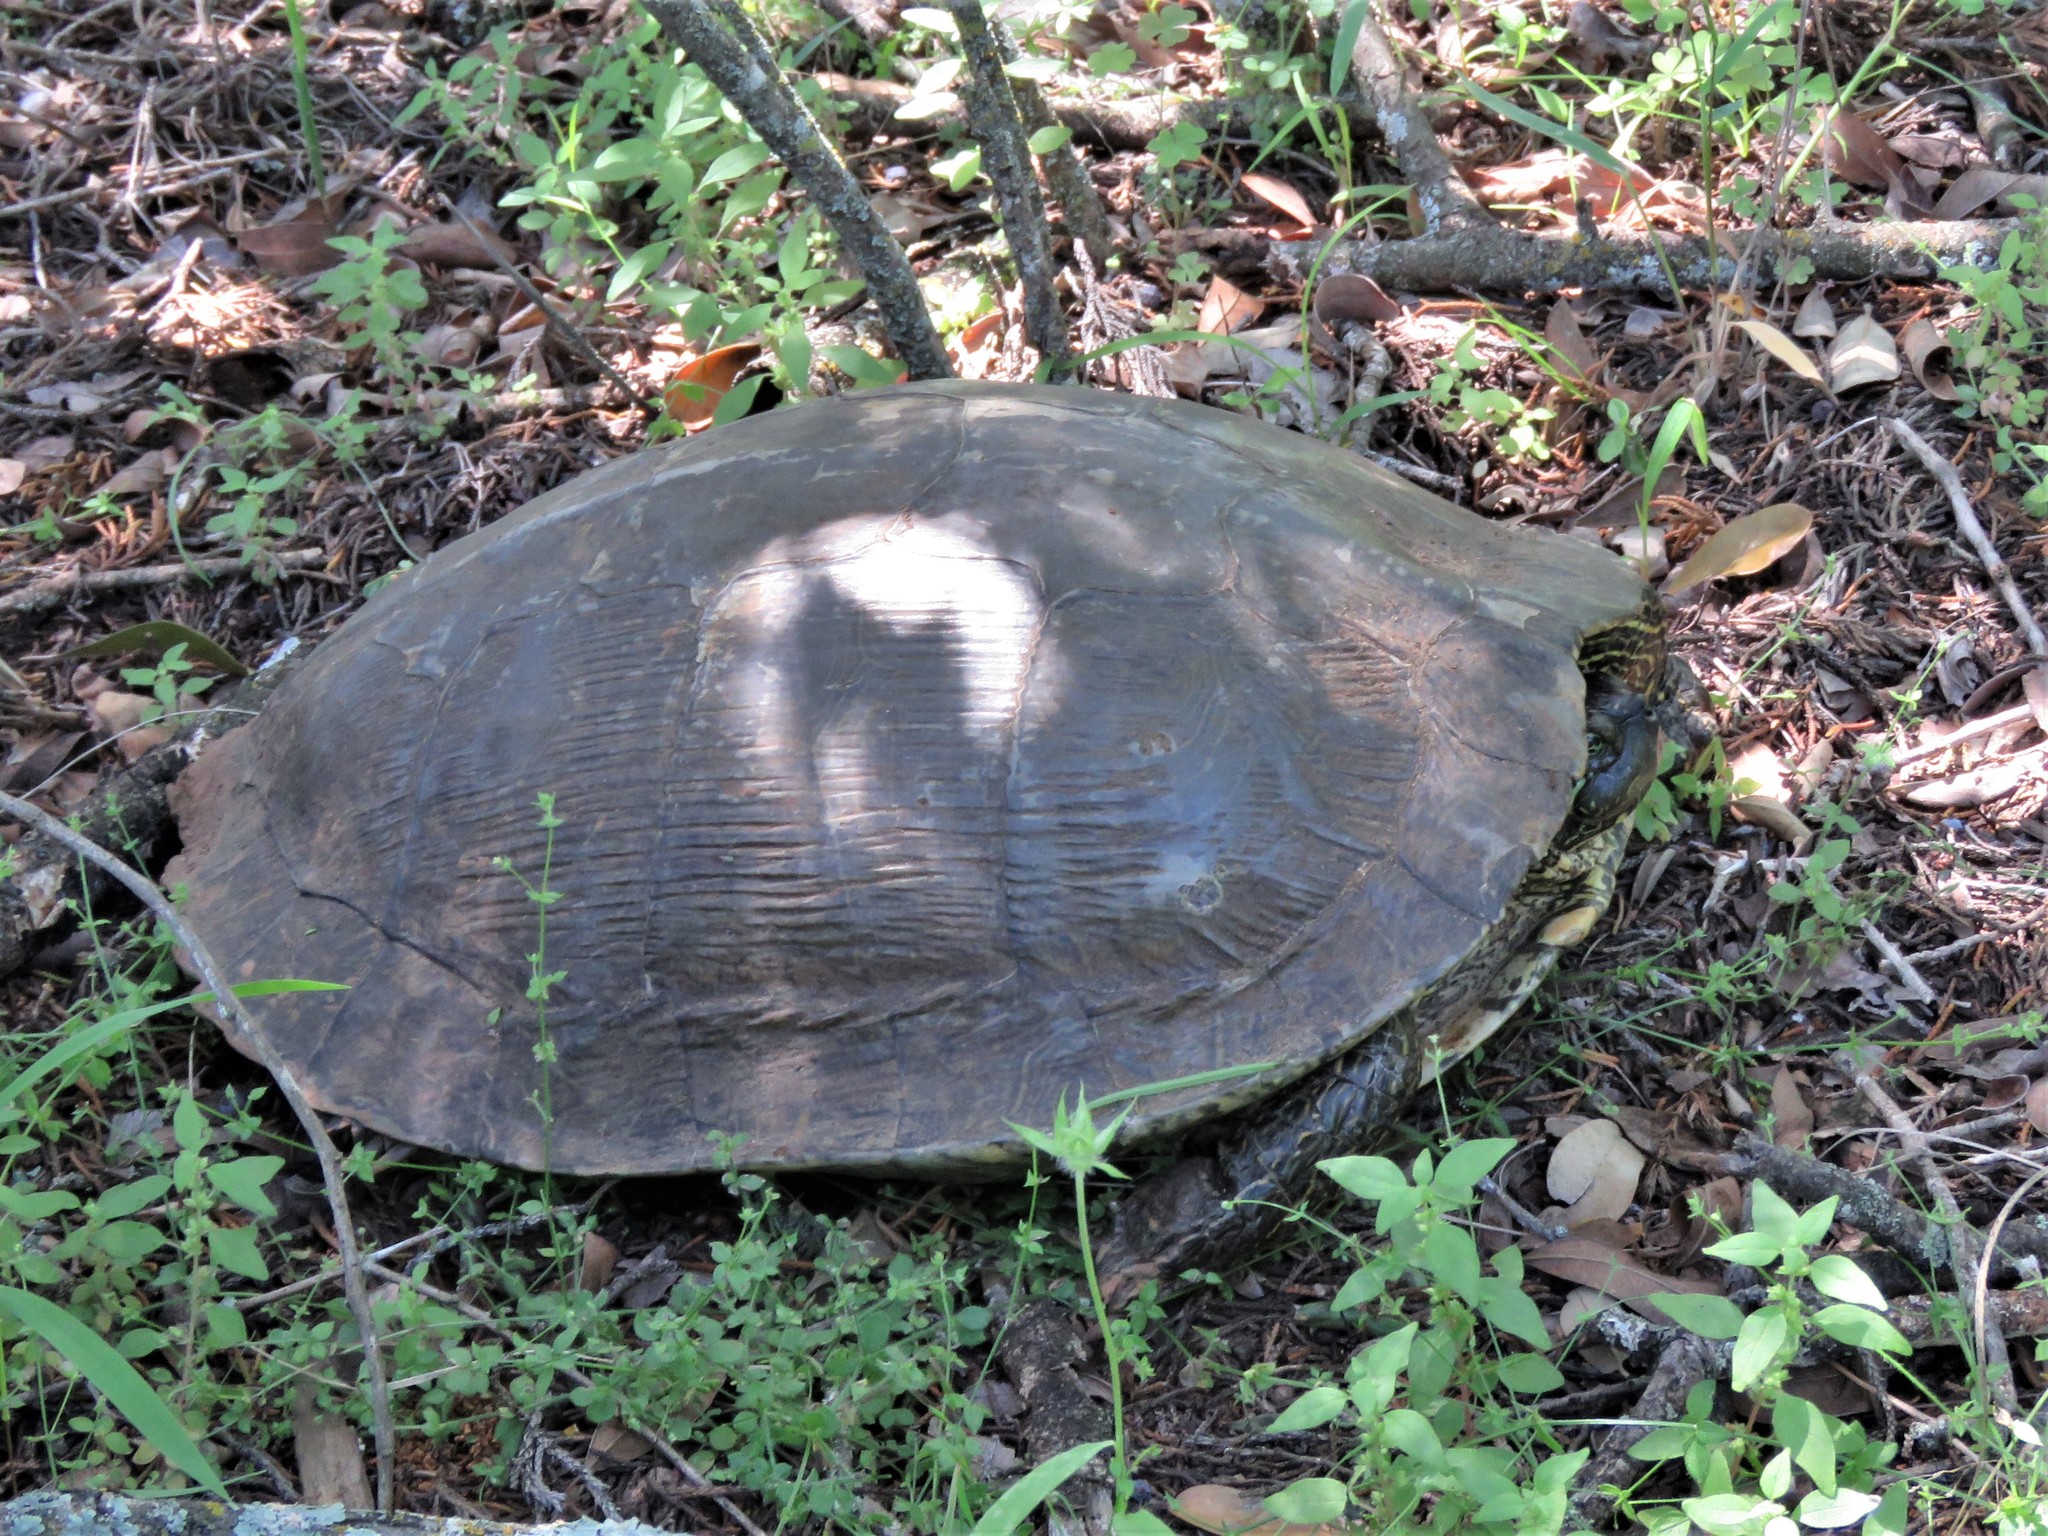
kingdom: Animalia
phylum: Chordata
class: Testudines
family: Emydidae
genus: Trachemys
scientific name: Trachemys scripta
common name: Slider
